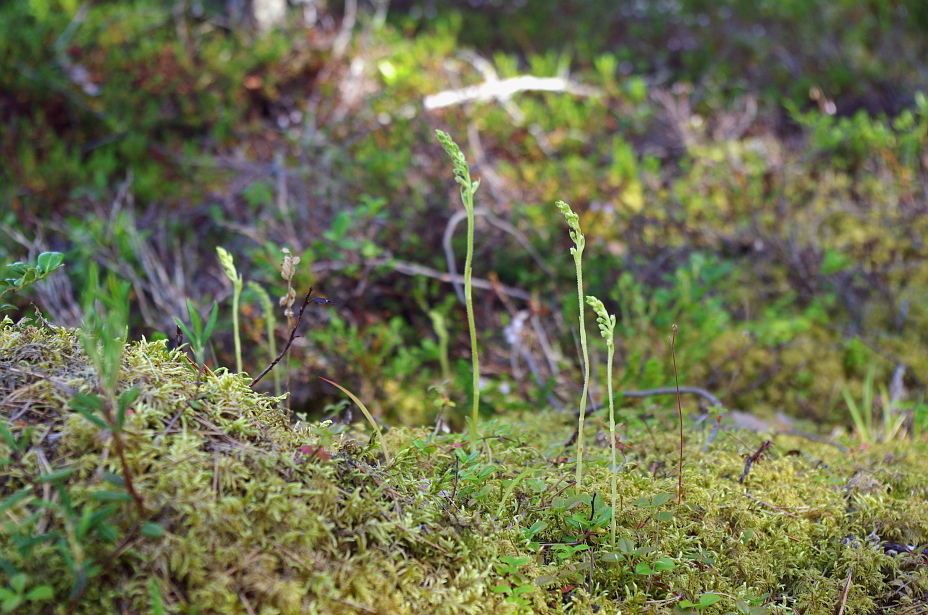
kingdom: Plantae
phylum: Tracheophyta
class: Liliopsida
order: Asparagales
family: Orchidaceae
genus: Goodyera
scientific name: Goodyera repens
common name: Creeping lady's-tresses
